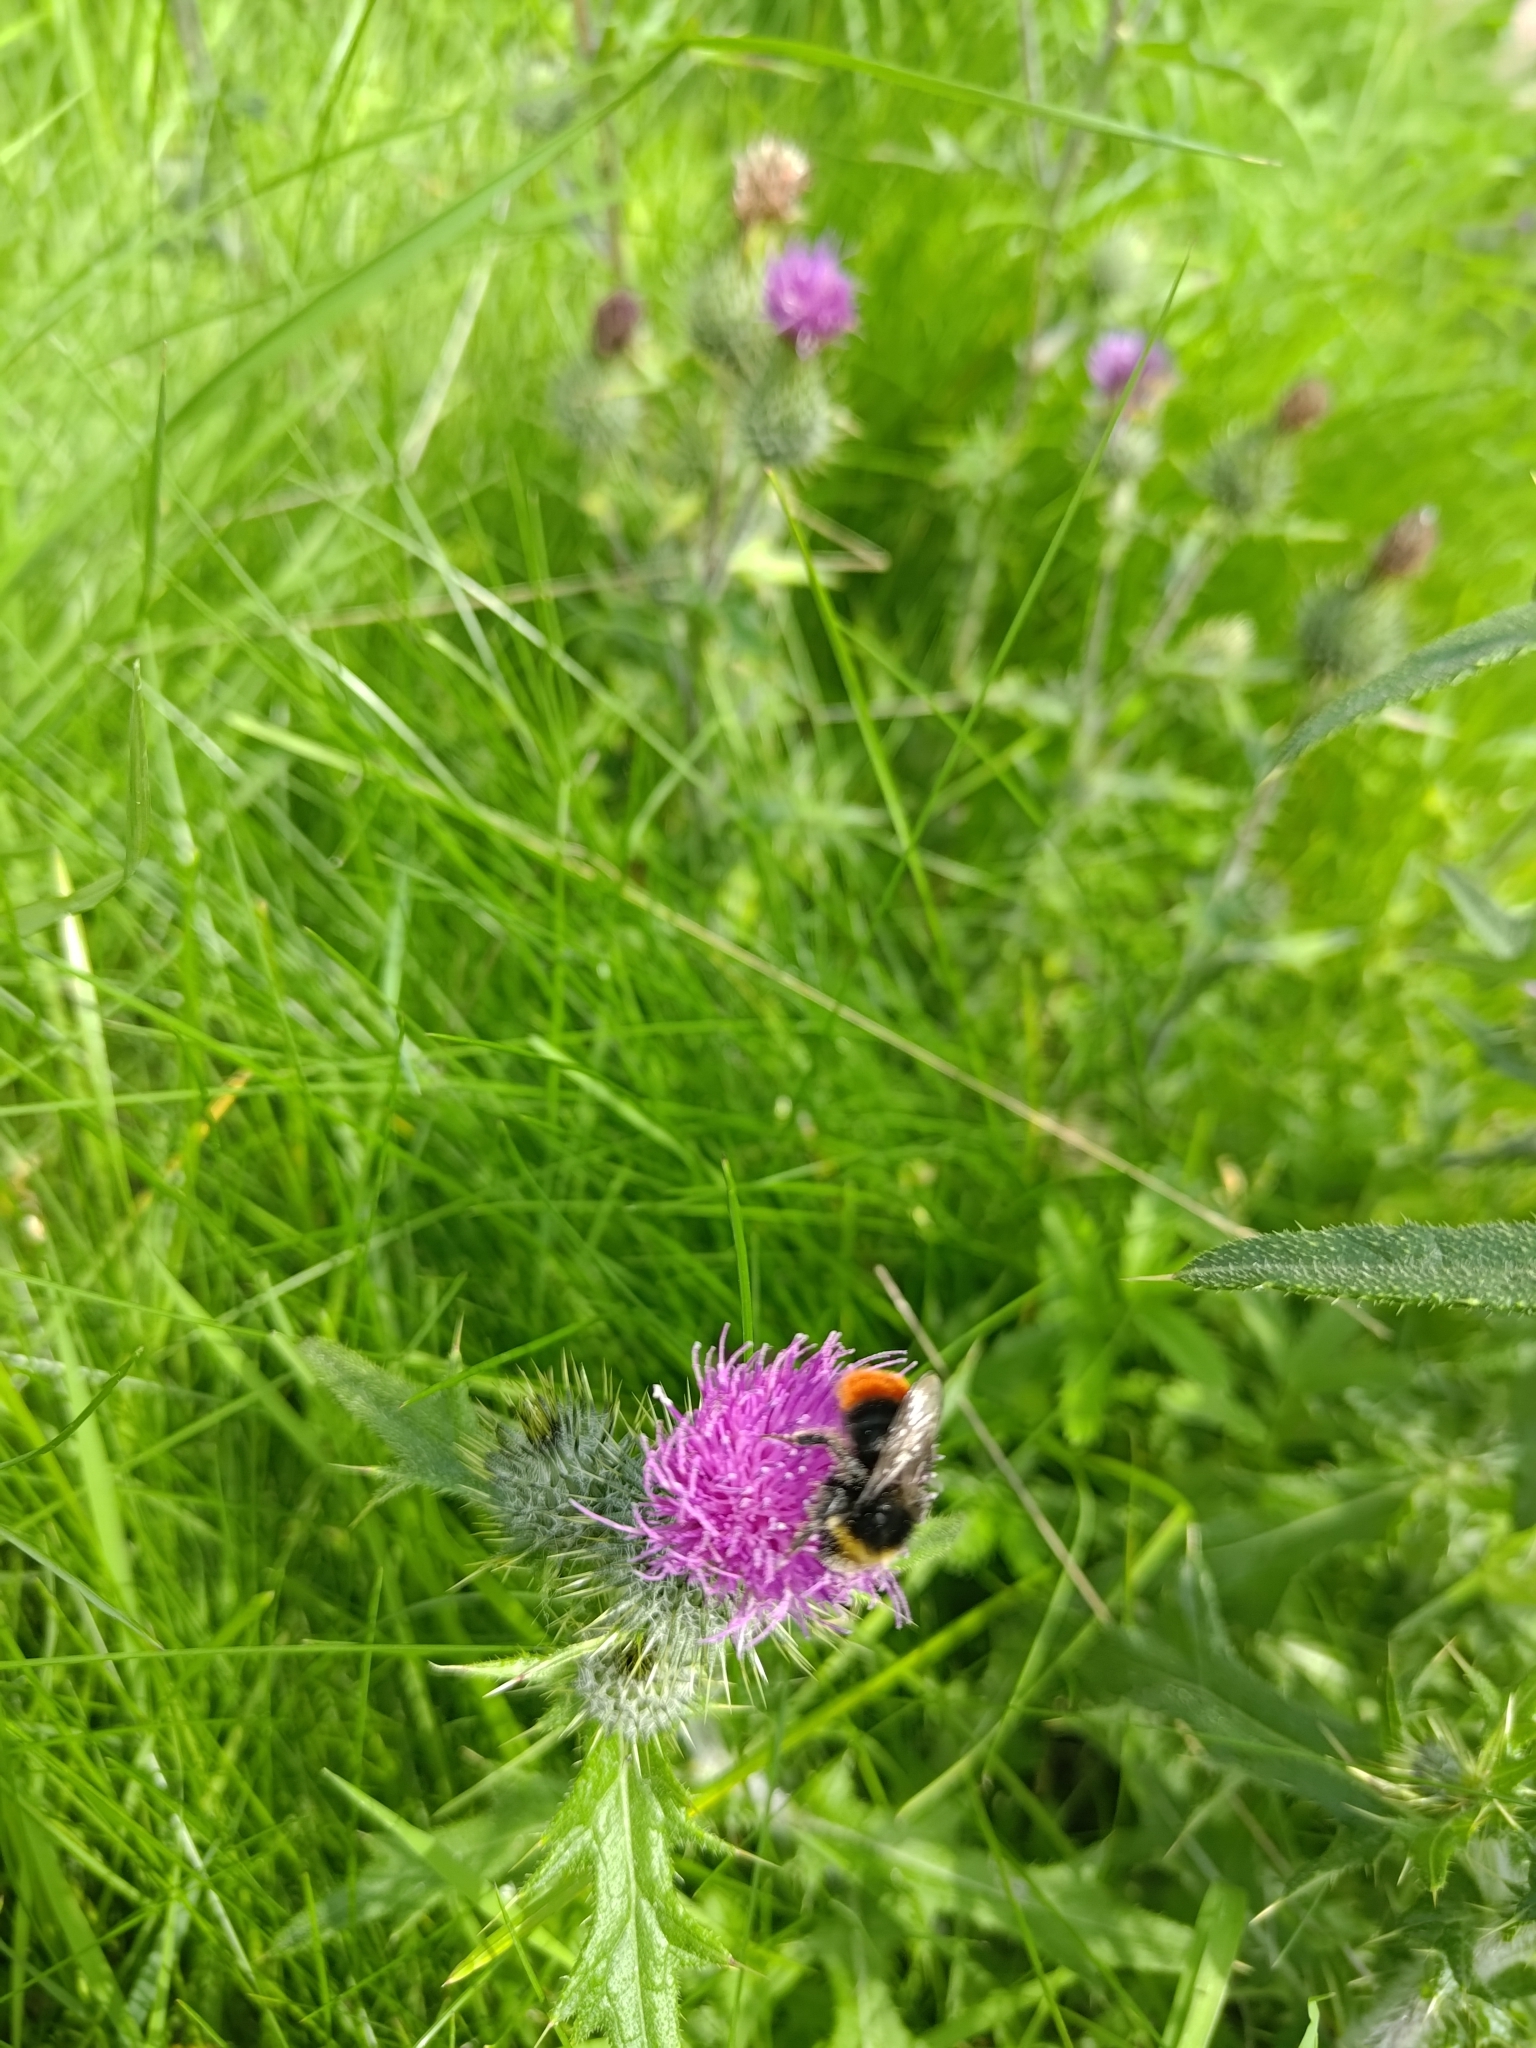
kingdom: Animalia
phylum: Arthropoda
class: Insecta
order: Hymenoptera
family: Apidae
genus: Bombus
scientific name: Bombus lapidarius
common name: Large red-tailed humble-bee
